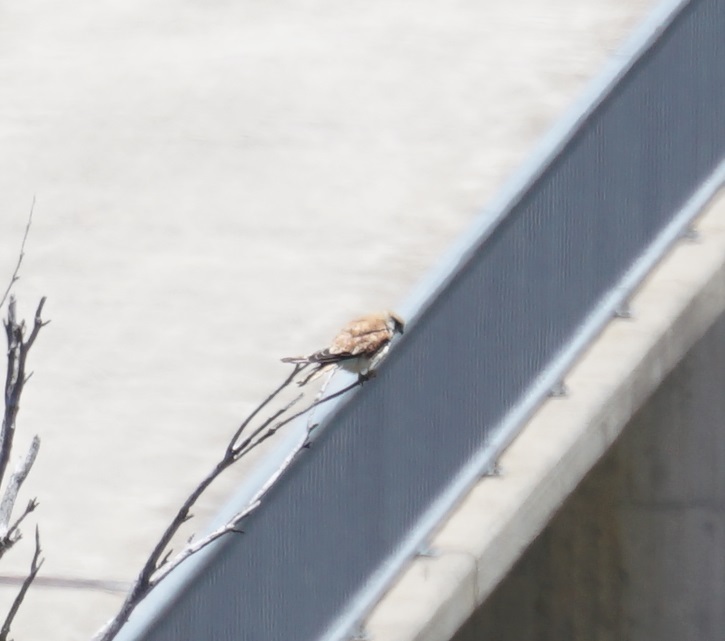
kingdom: Animalia
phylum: Chordata
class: Aves
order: Falconiformes
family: Falconidae
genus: Falco
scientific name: Falco cenchroides
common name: Nankeen kestrel
